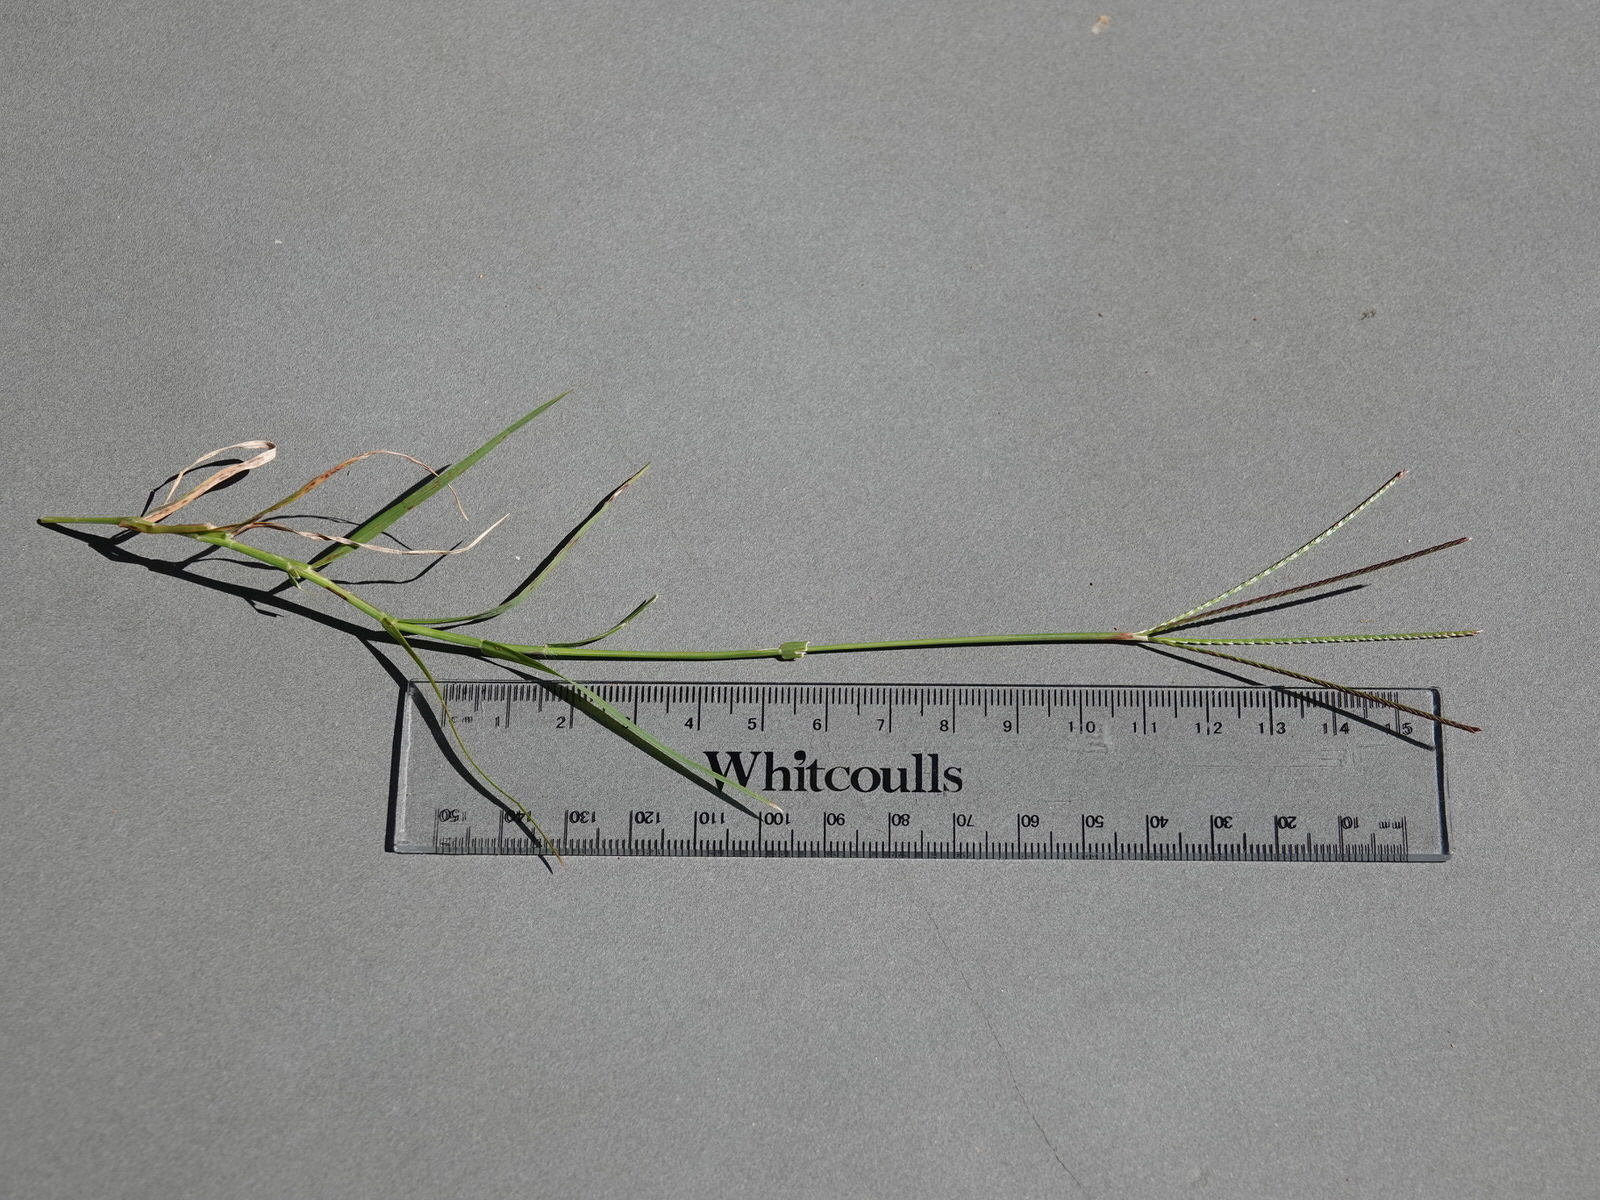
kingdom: Plantae
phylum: Tracheophyta
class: Liliopsida
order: Poales
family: Poaceae
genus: Cynodon
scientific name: Cynodon dactylon
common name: Bermuda grass
